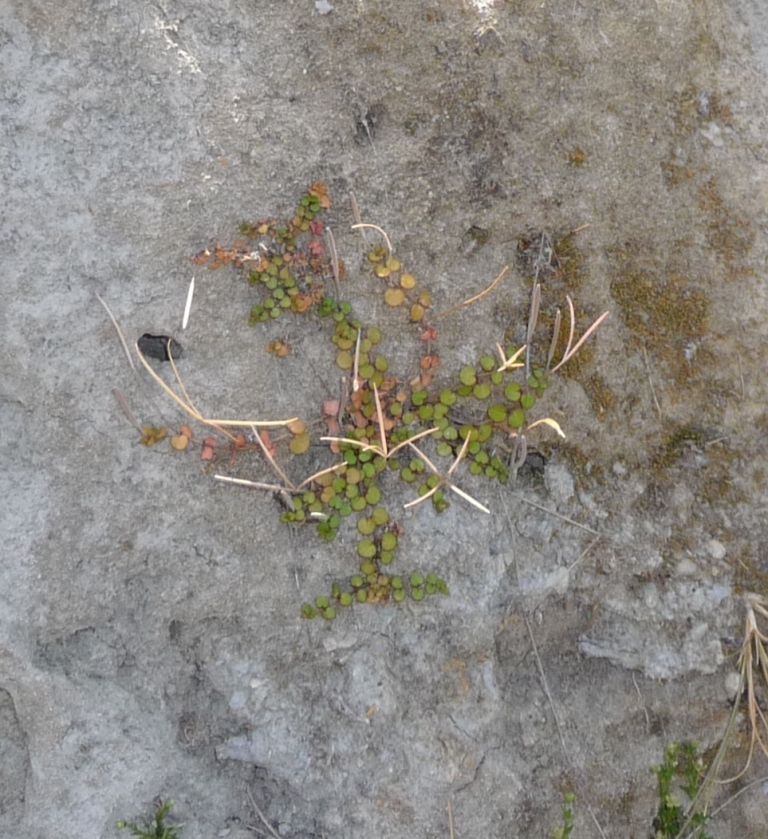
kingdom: Plantae
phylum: Tracheophyta
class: Magnoliopsida
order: Myrtales
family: Onagraceae
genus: Epilobium
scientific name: Epilobium nummularifolium
